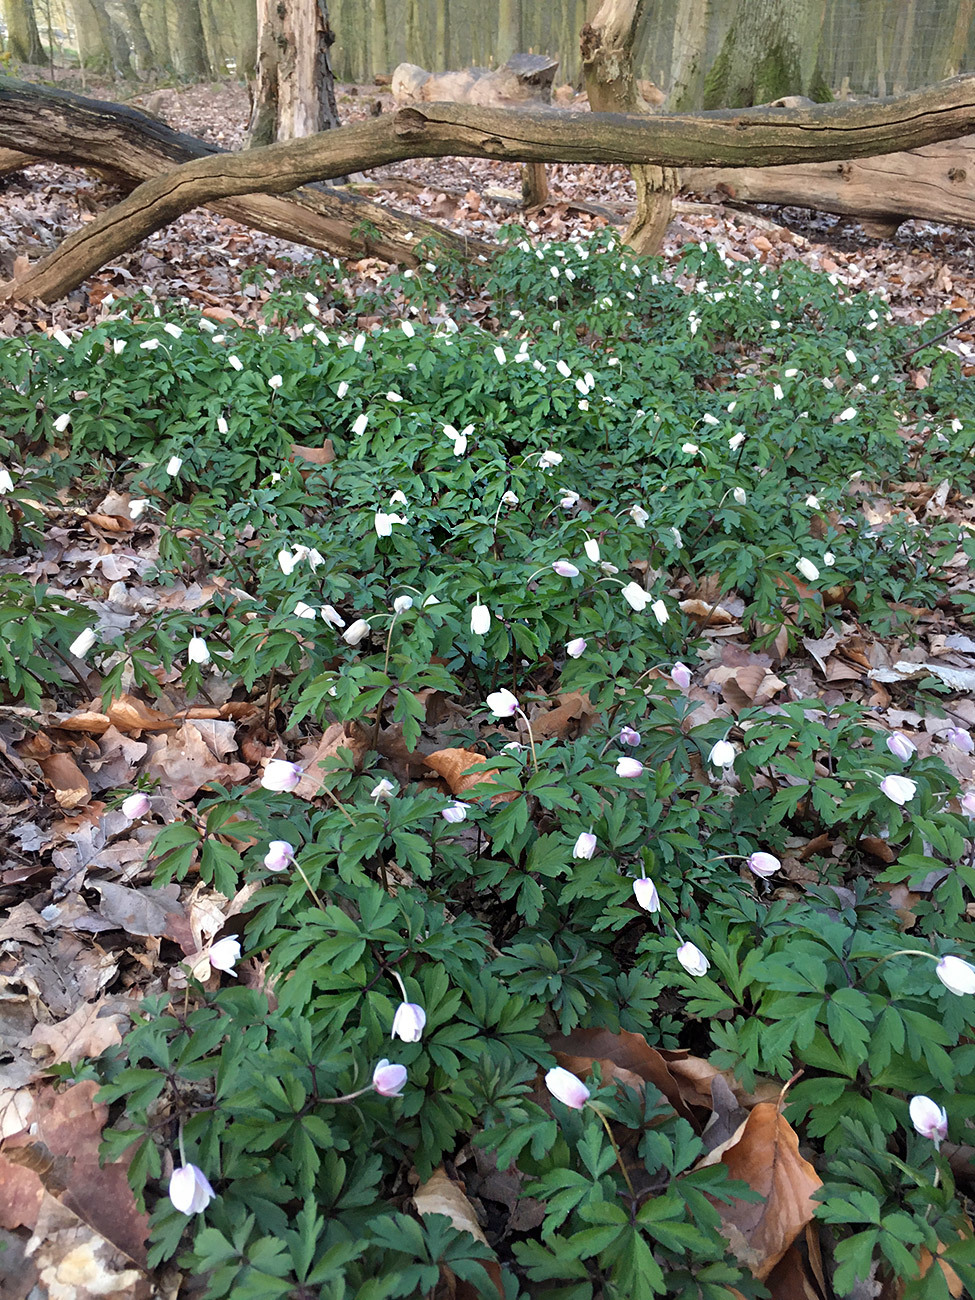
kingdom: Plantae
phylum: Tracheophyta
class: Magnoliopsida
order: Ranunculales
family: Ranunculaceae
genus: Anemone
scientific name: Anemone nemorosa
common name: Wood anemone
